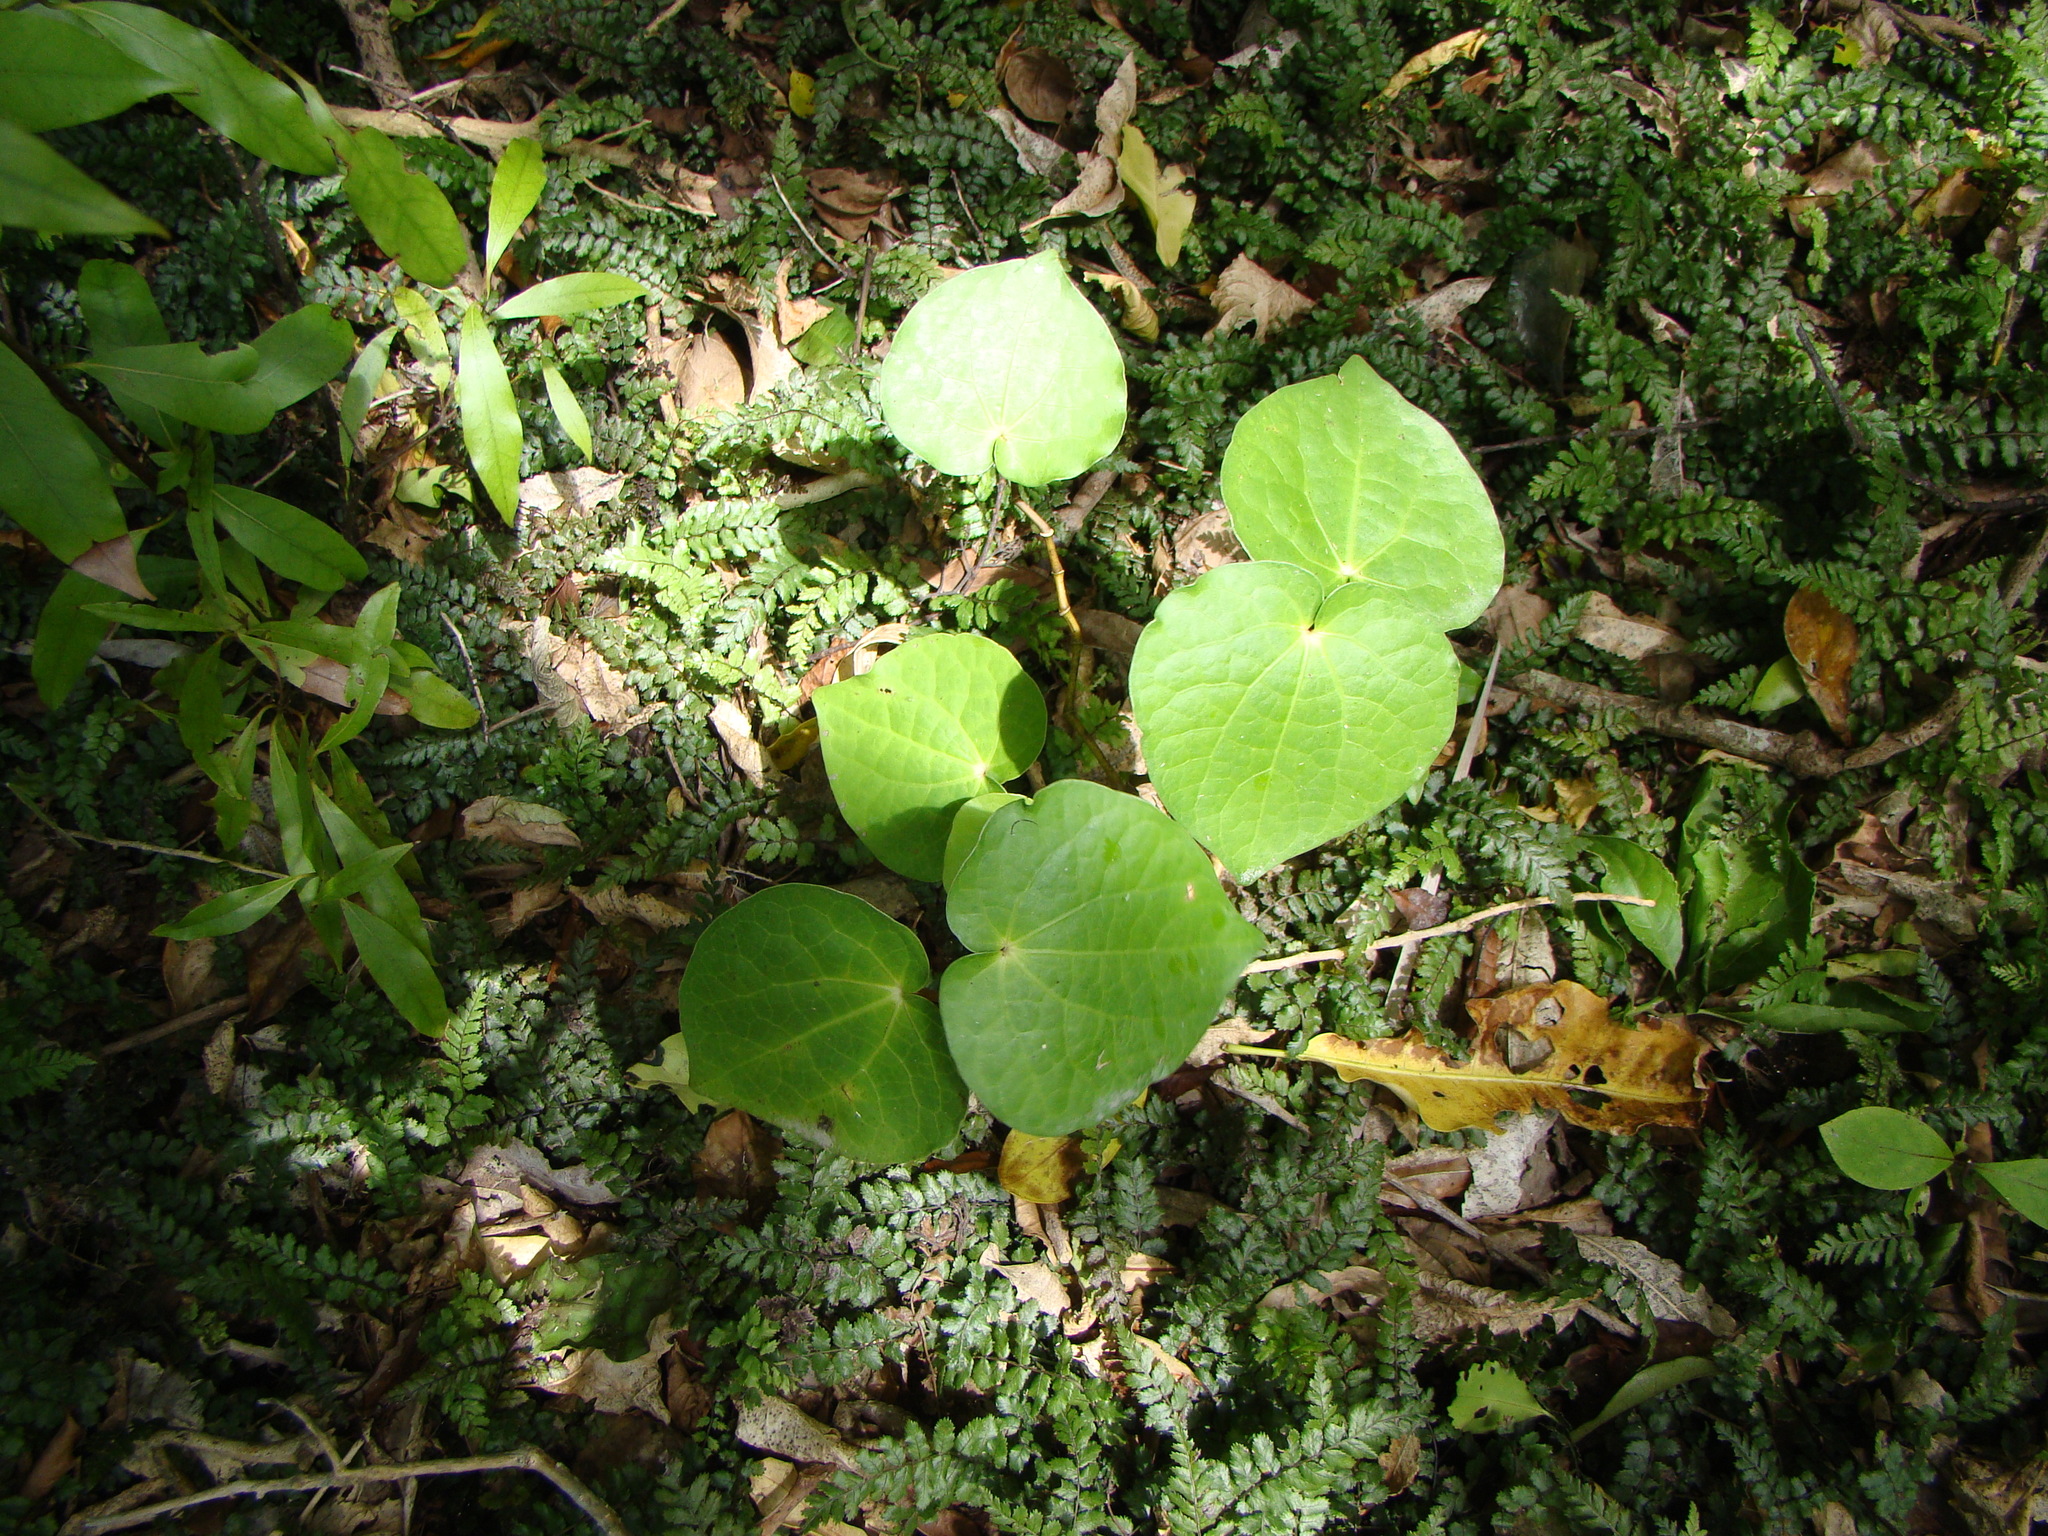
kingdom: Plantae
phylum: Tracheophyta
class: Magnoliopsida
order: Piperales
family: Piperaceae
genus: Macropiper
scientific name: Macropiper excelsum
